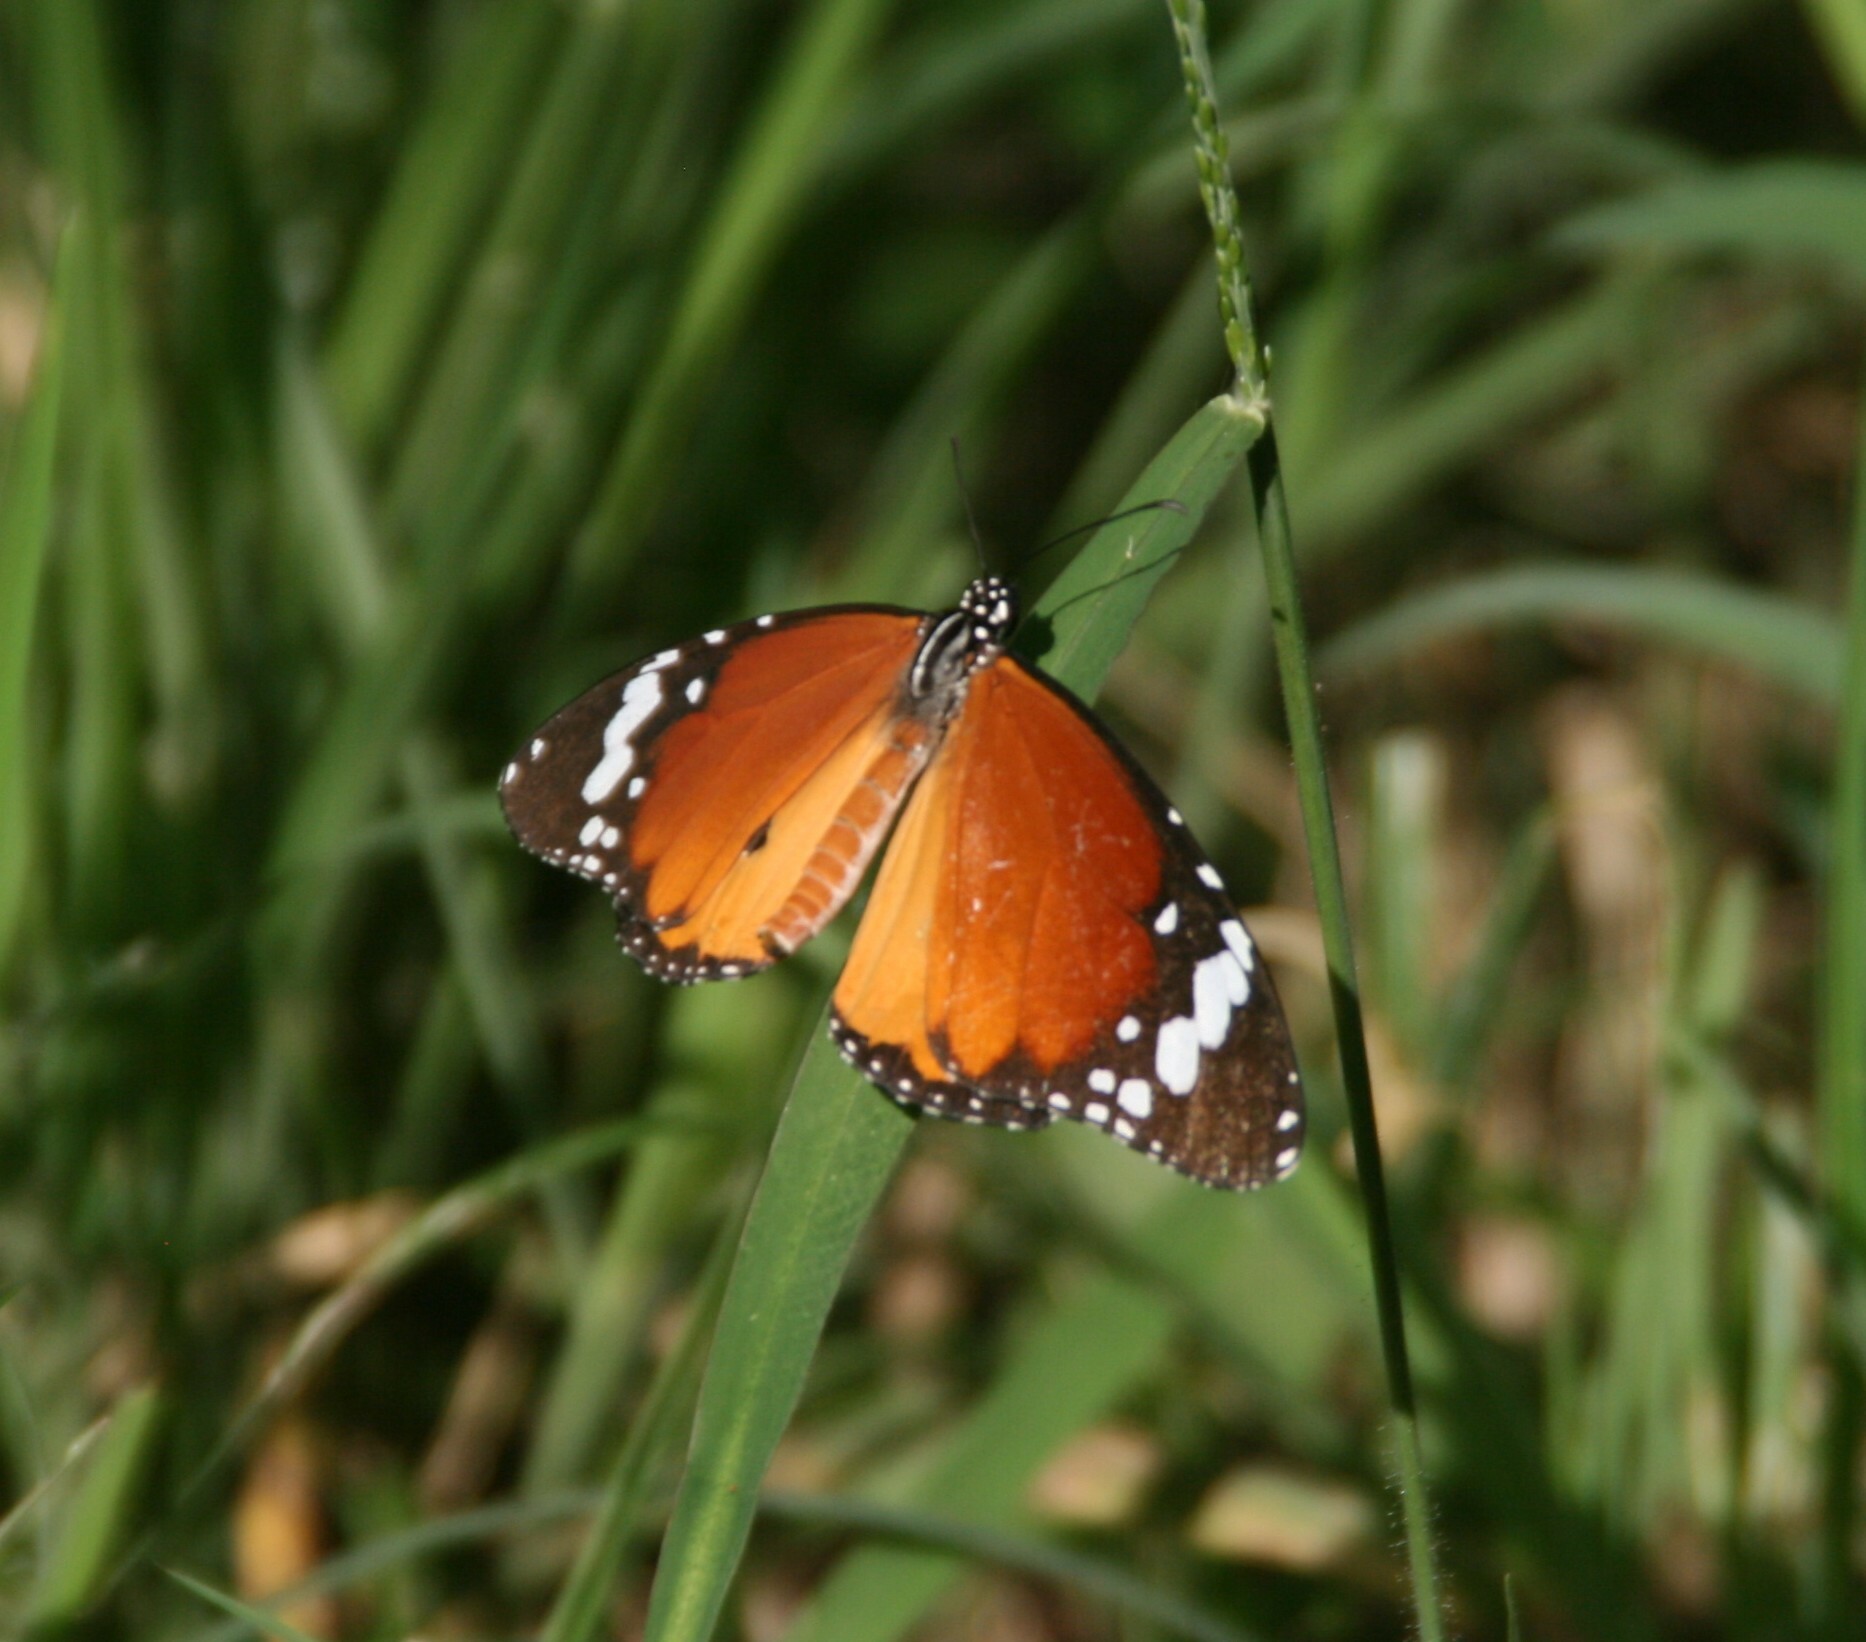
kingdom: Animalia
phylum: Arthropoda
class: Insecta
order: Lepidoptera
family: Nymphalidae
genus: Danaus
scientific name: Danaus chrysippus
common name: Plain tiger
